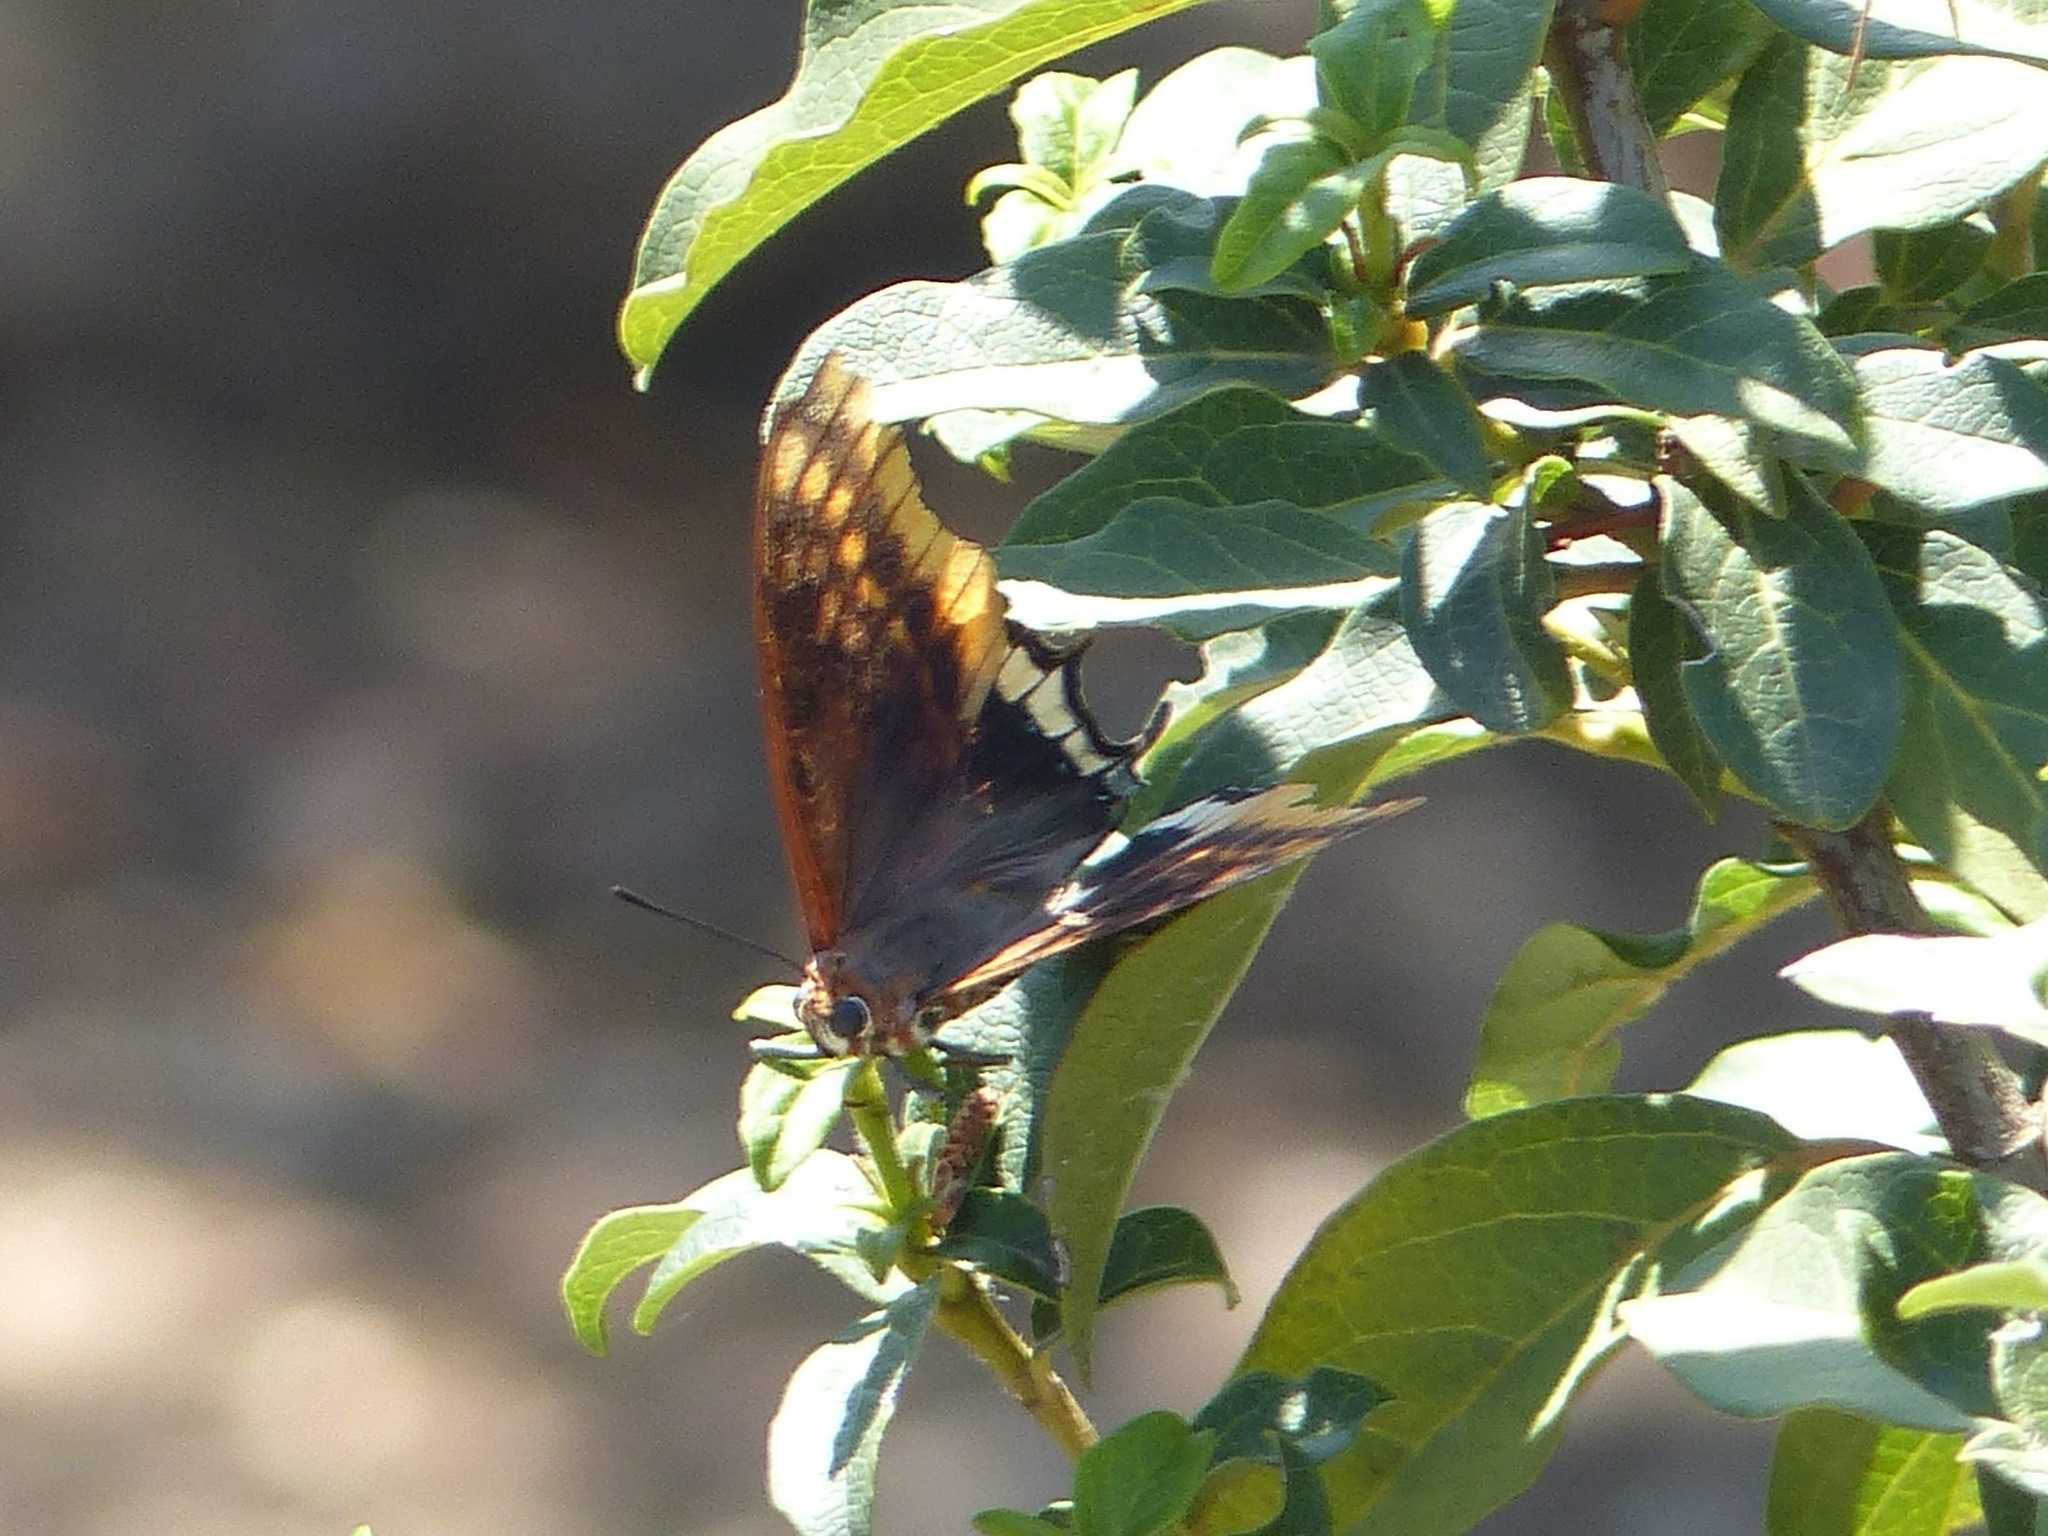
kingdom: Animalia
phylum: Arthropoda
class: Insecta
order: Lepidoptera
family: Nymphalidae
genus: Charaxes
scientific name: Charaxes jasius
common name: Two tailed pasha
